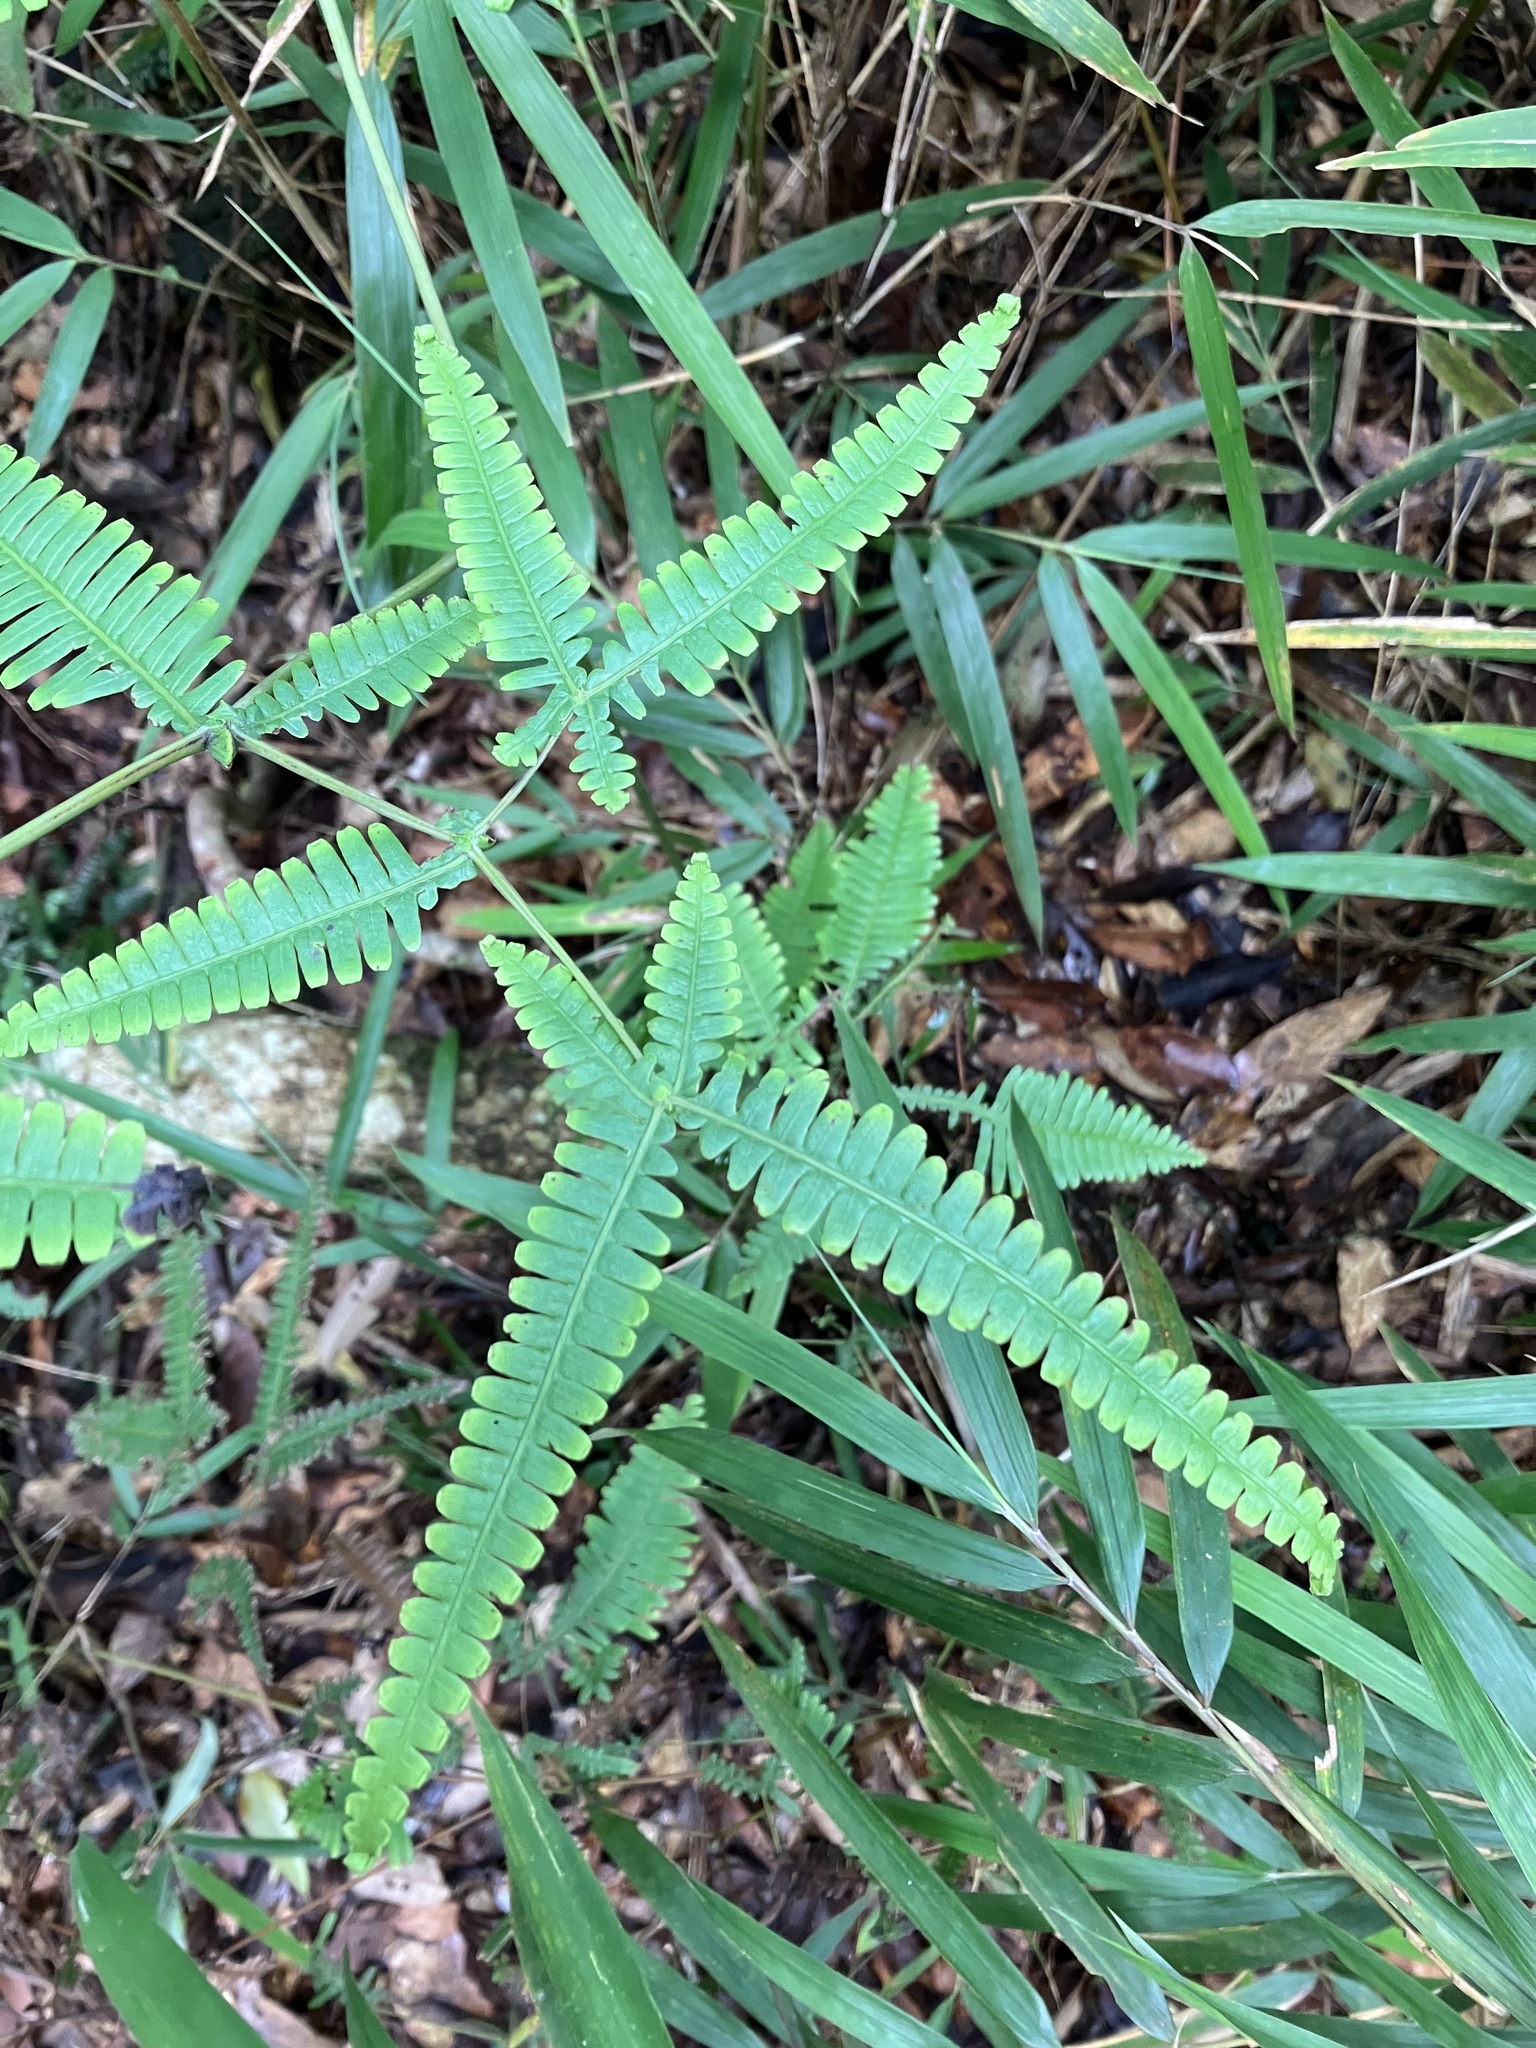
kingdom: Plantae
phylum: Tracheophyta
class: Polypodiopsida
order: Gleicheniales
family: Gleicheniaceae
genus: Dicranopteris
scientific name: Dicranopteris tetraphylla
